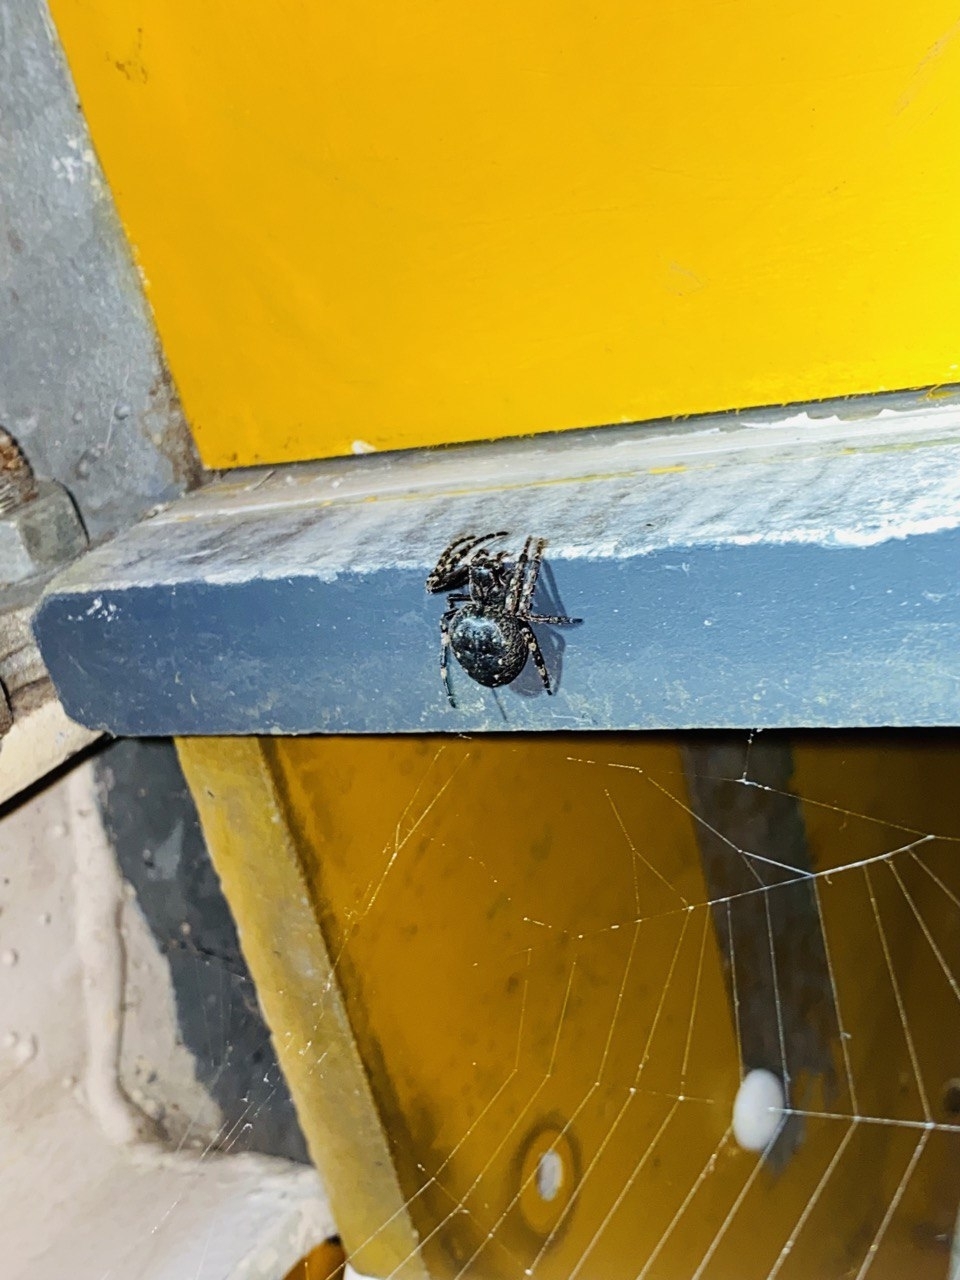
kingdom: Animalia
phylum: Arthropoda
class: Arachnida
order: Araneae
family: Araneidae
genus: Nuctenea
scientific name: Nuctenea umbratica
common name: Toad spider
